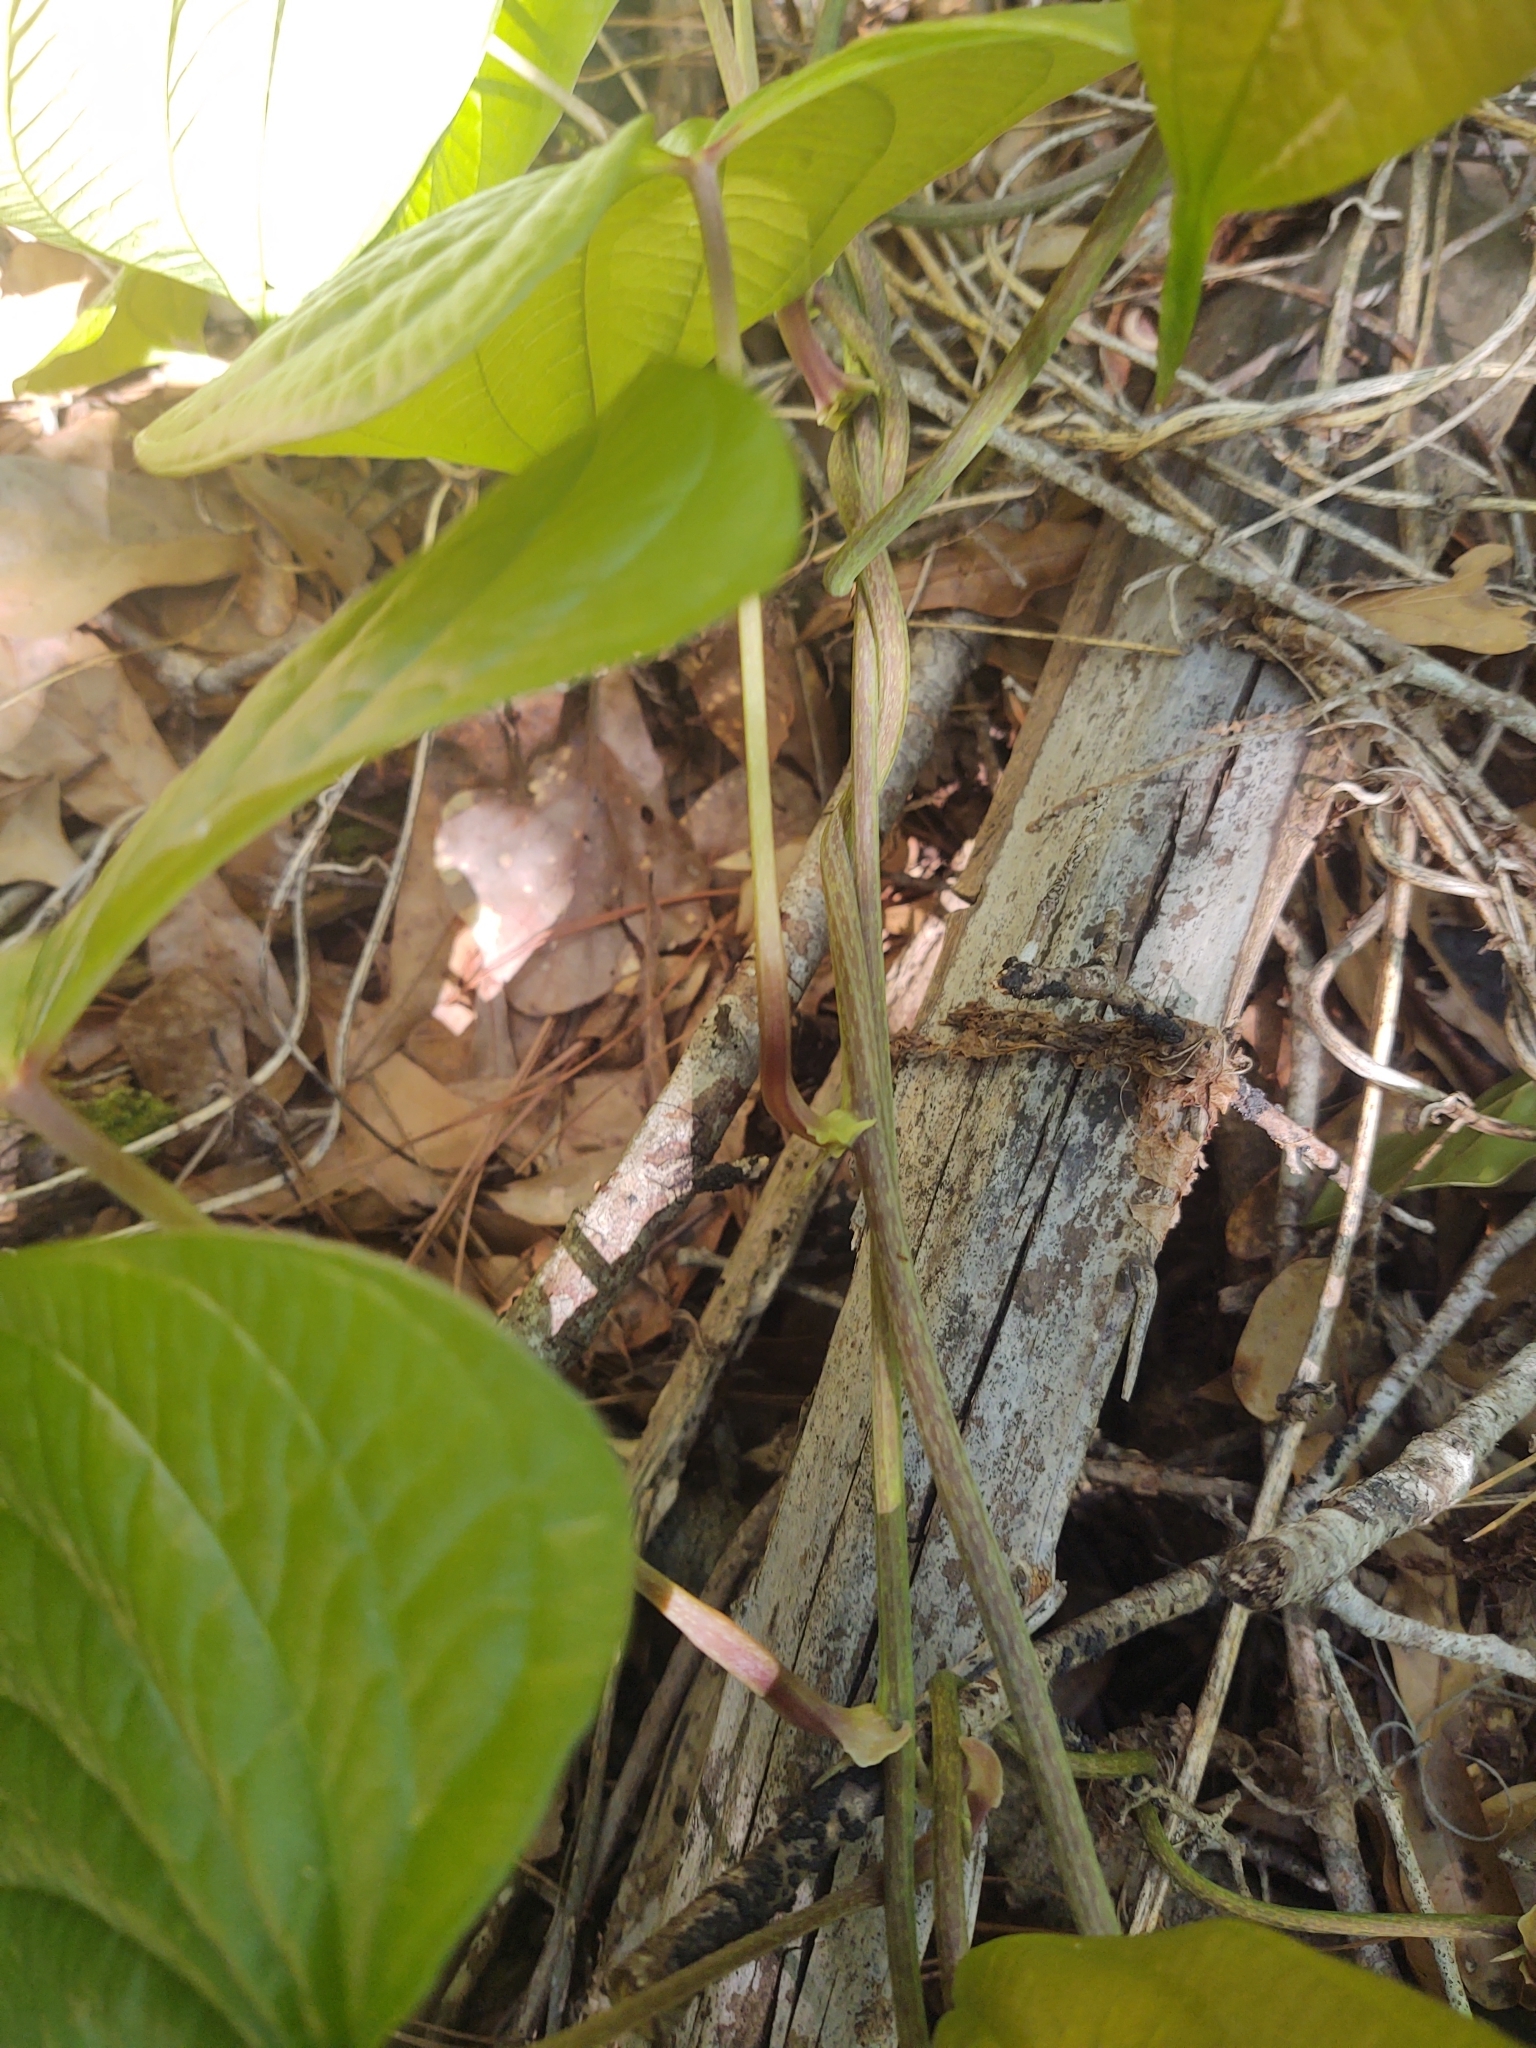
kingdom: Plantae
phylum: Tracheophyta
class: Liliopsida
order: Dioscoreales
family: Dioscoreaceae
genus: Dioscorea
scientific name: Dioscorea bulbifera
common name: Air yam
